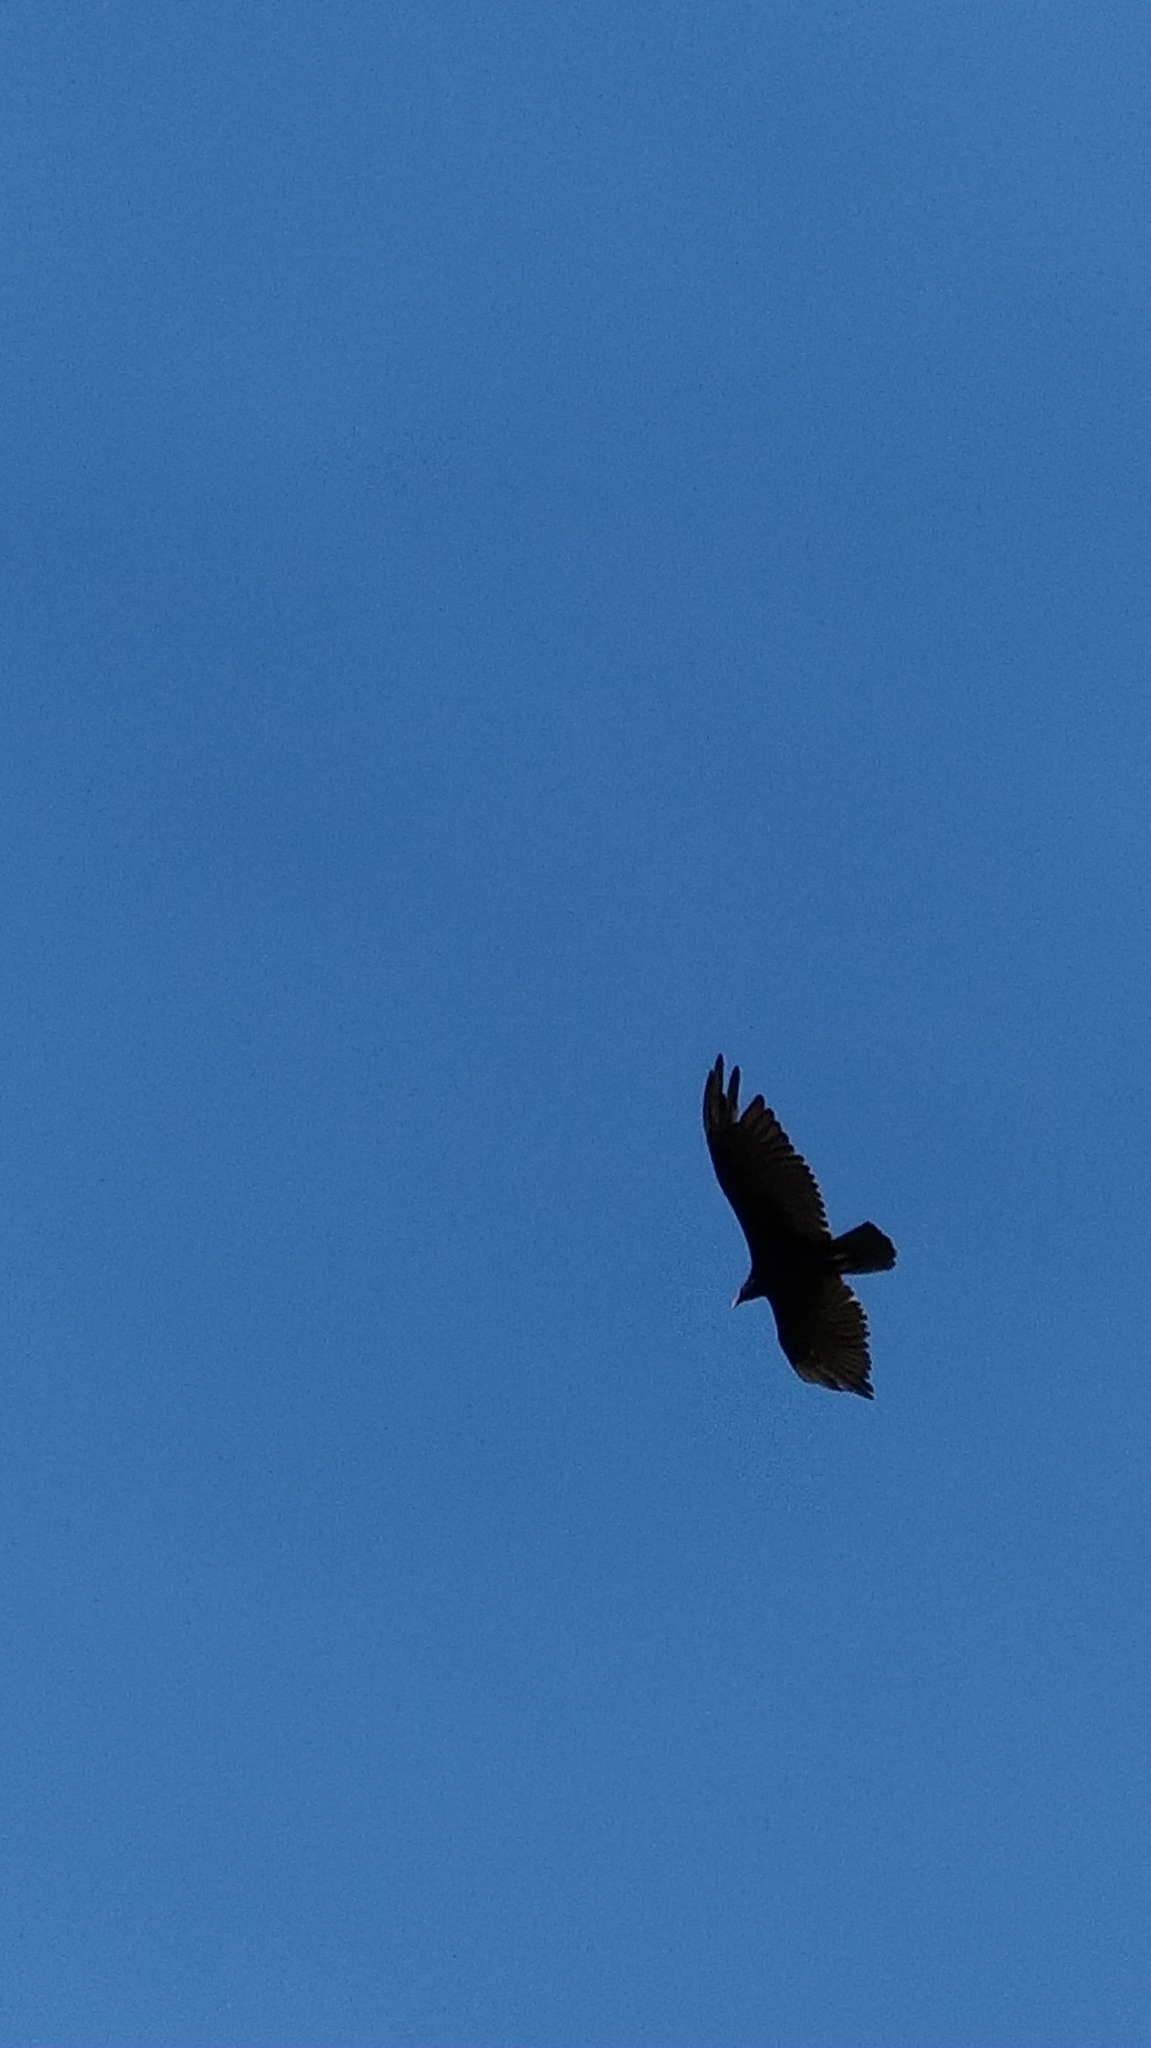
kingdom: Animalia
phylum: Chordata
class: Aves
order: Accipitriformes
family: Cathartidae
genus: Cathartes
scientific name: Cathartes aura
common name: Turkey vulture
